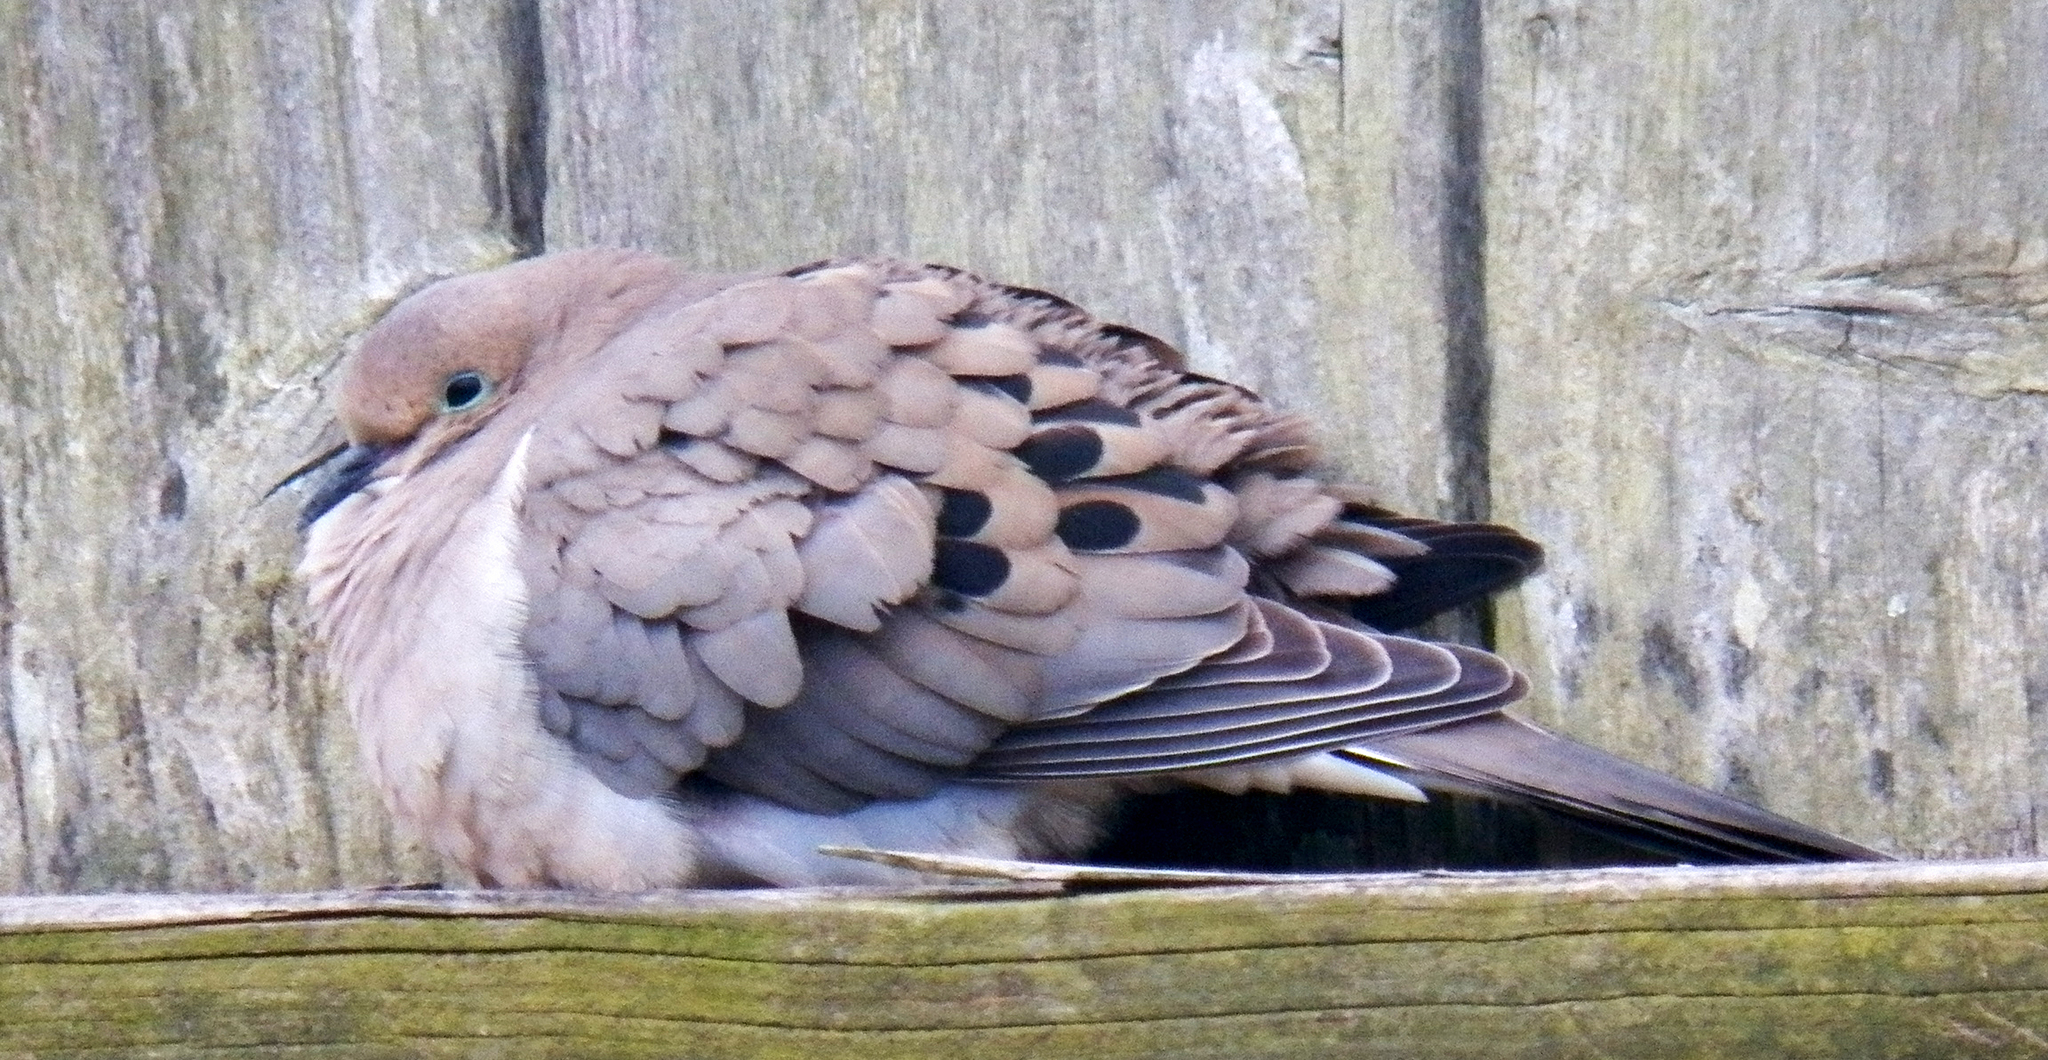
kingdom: Animalia
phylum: Chordata
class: Aves
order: Columbiformes
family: Columbidae
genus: Zenaida
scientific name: Zenaida macroura
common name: Mourning dove
